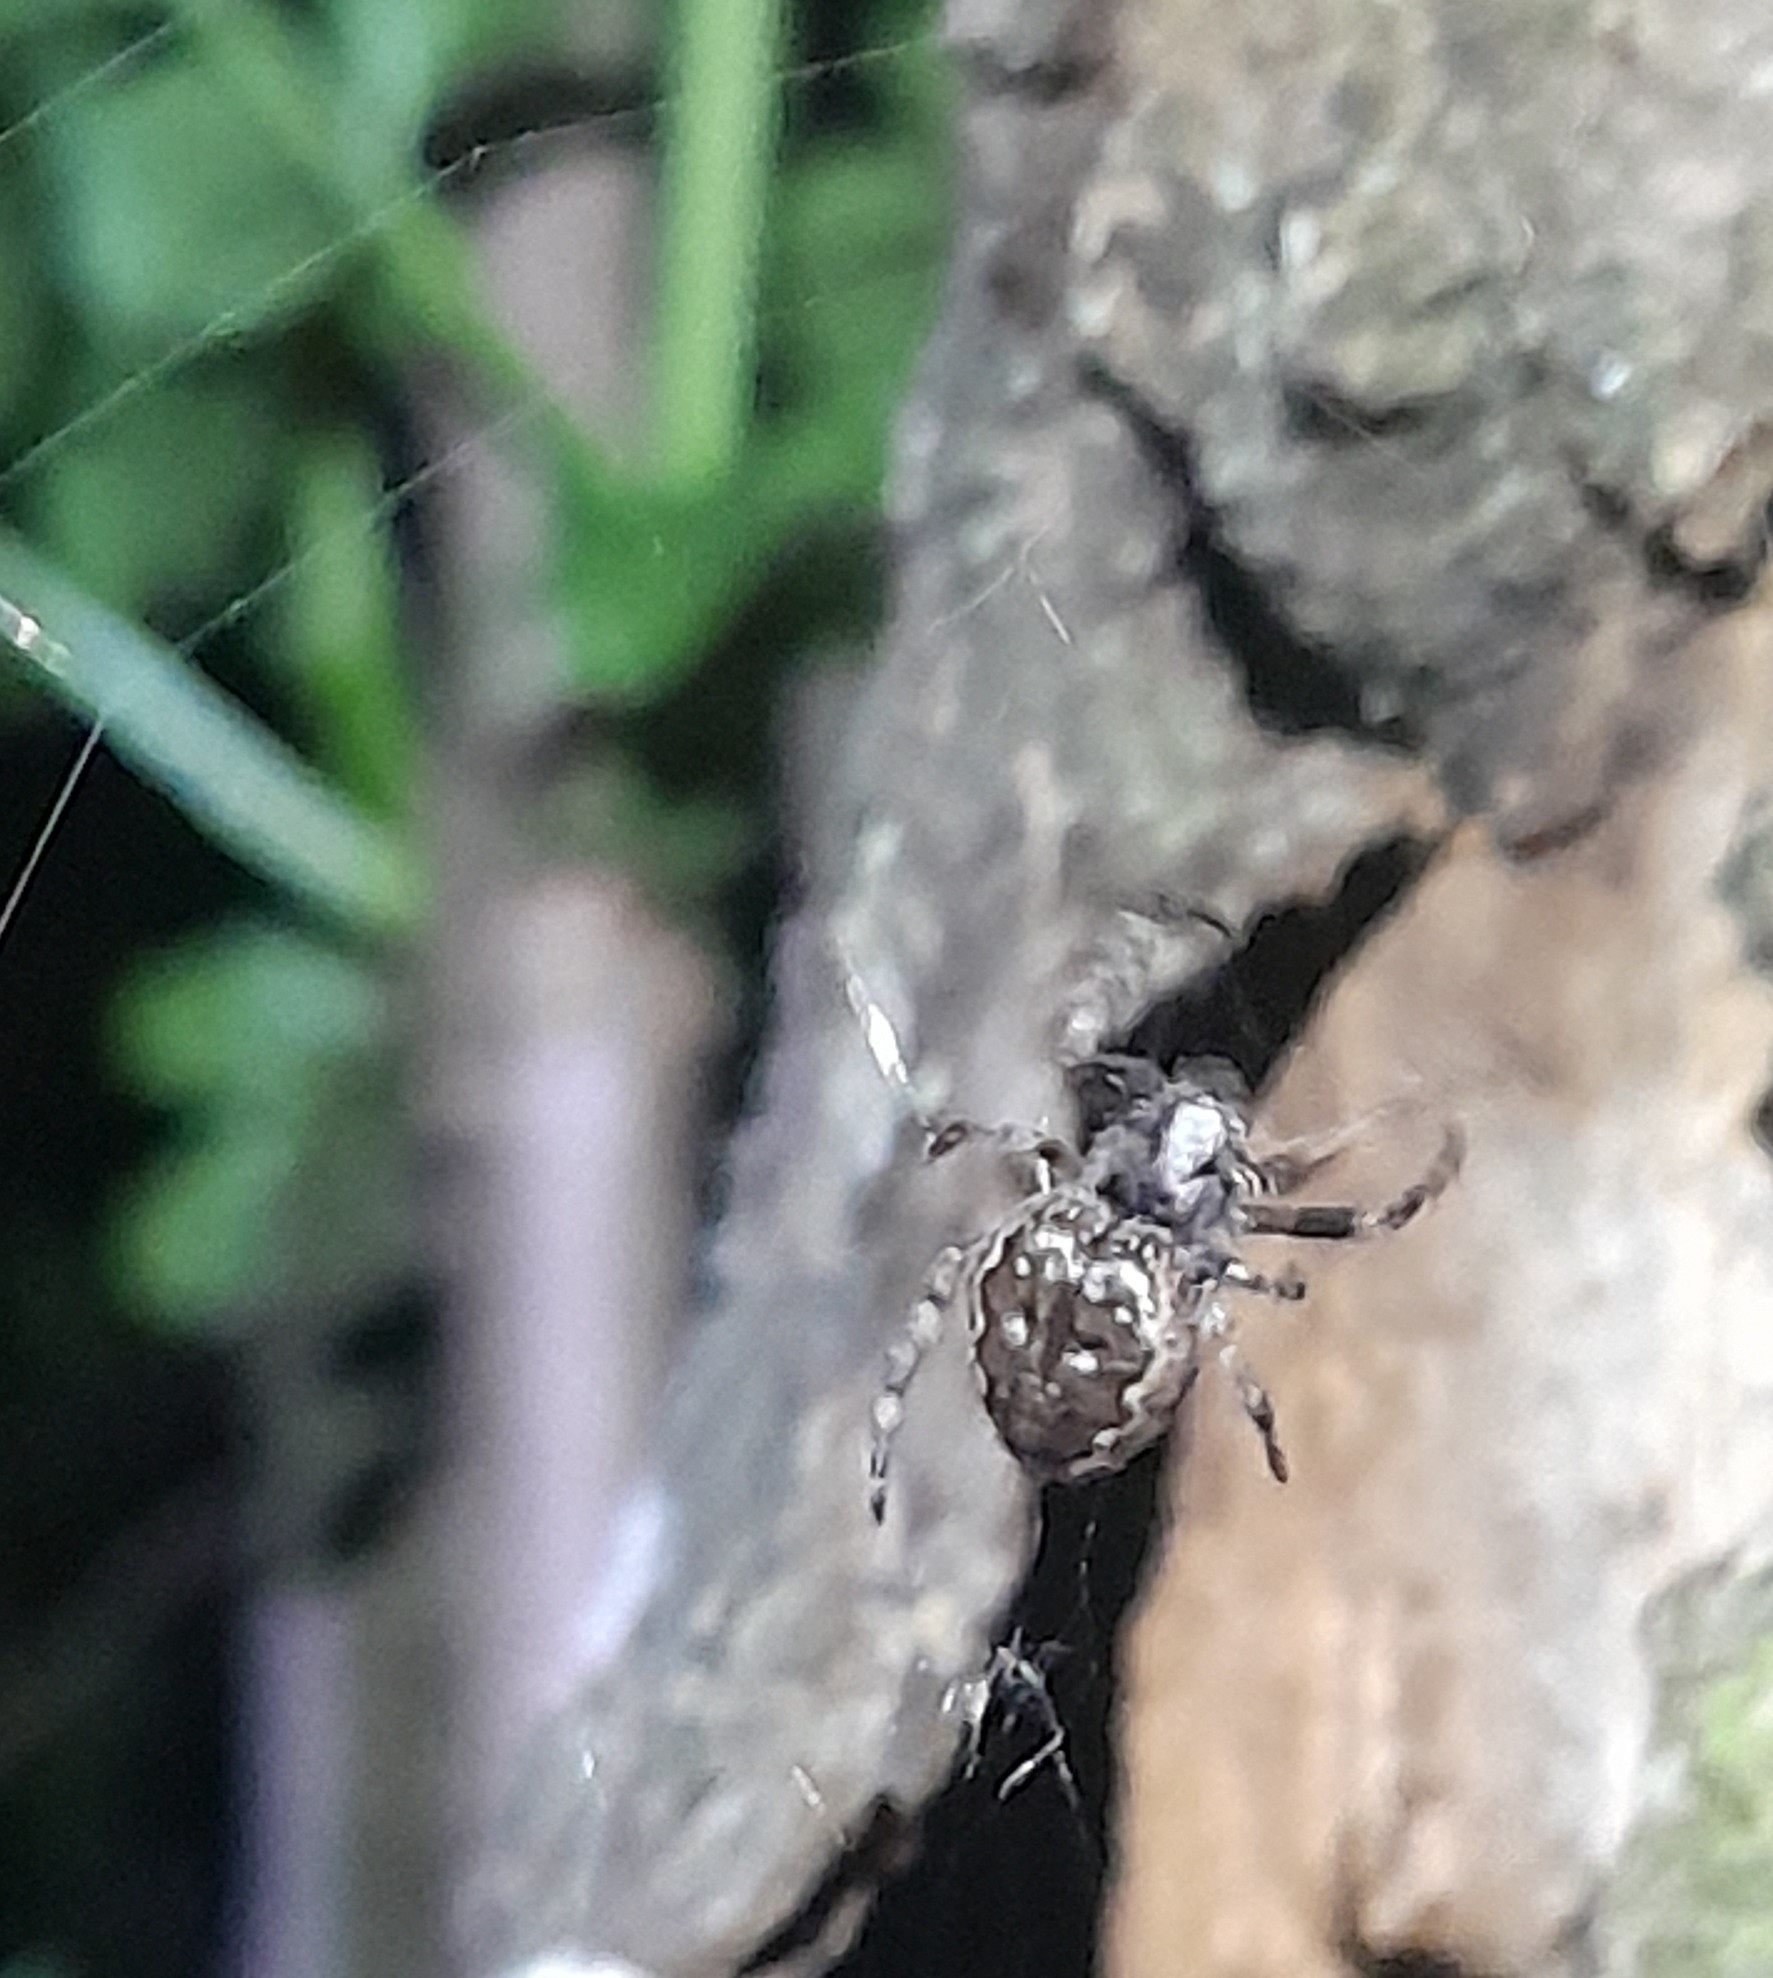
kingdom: Animalia
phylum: Arthropoda
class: Arachnida
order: Araneae
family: Araneidae
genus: Nuctenea
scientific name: Nuctenea umbratica
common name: Toad spider
